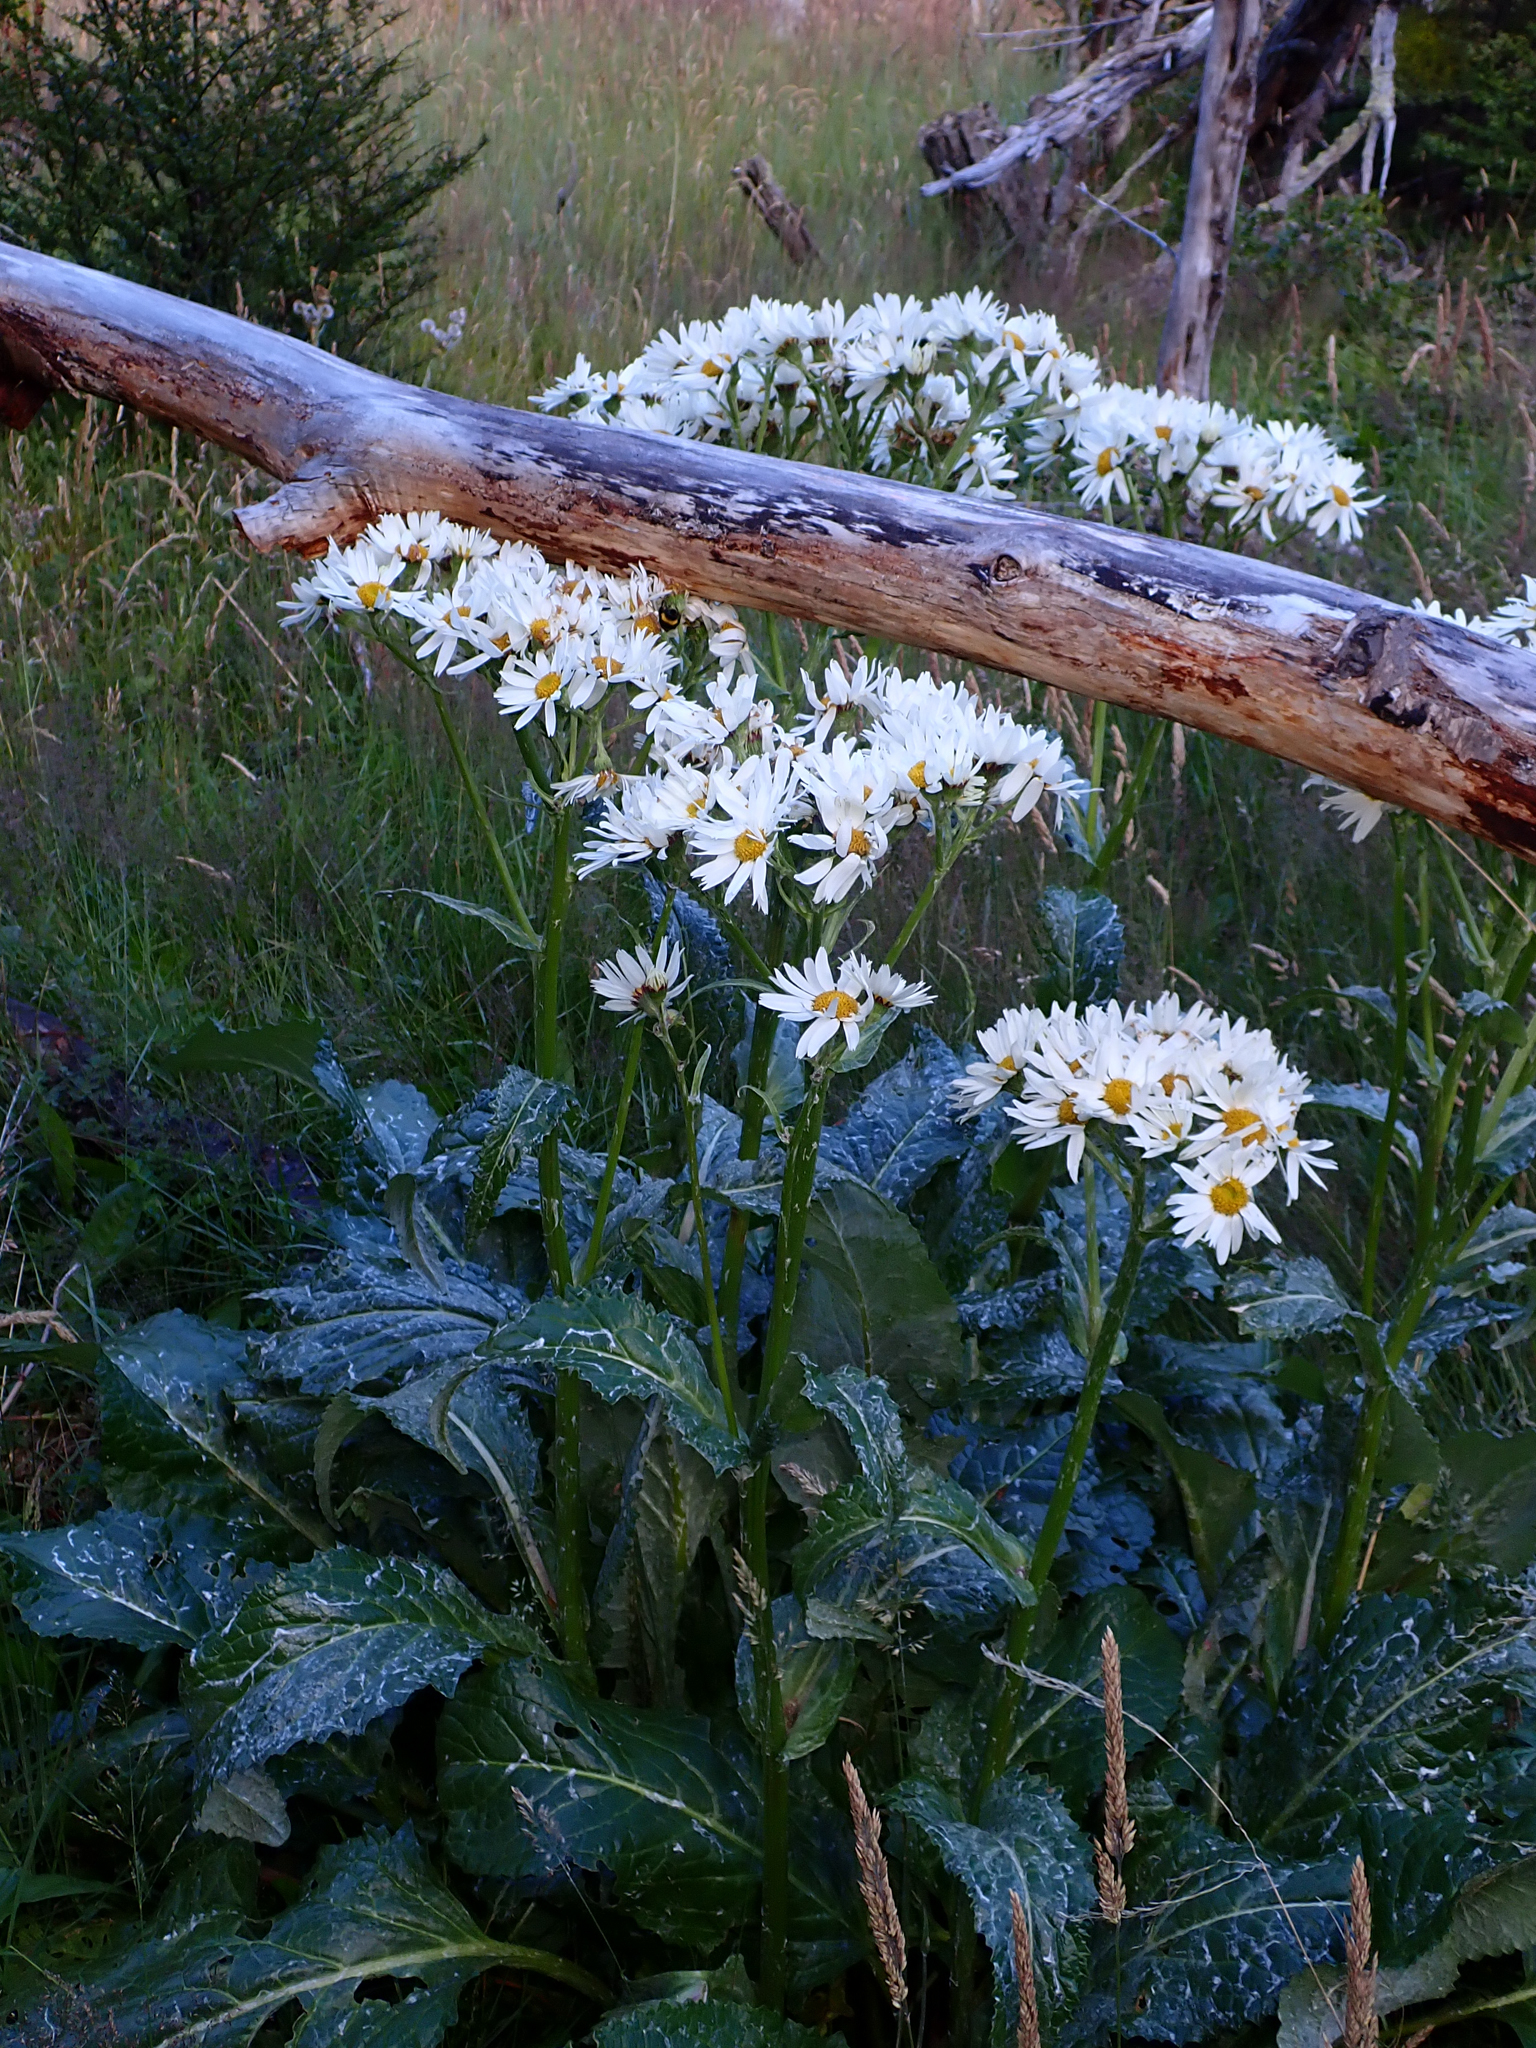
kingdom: Plantae
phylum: Tracheophyta
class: Magnoliopsida
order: Asterales
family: Asteraceae
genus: Senecio
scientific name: Senecio smithii
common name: Magellan ragwort
